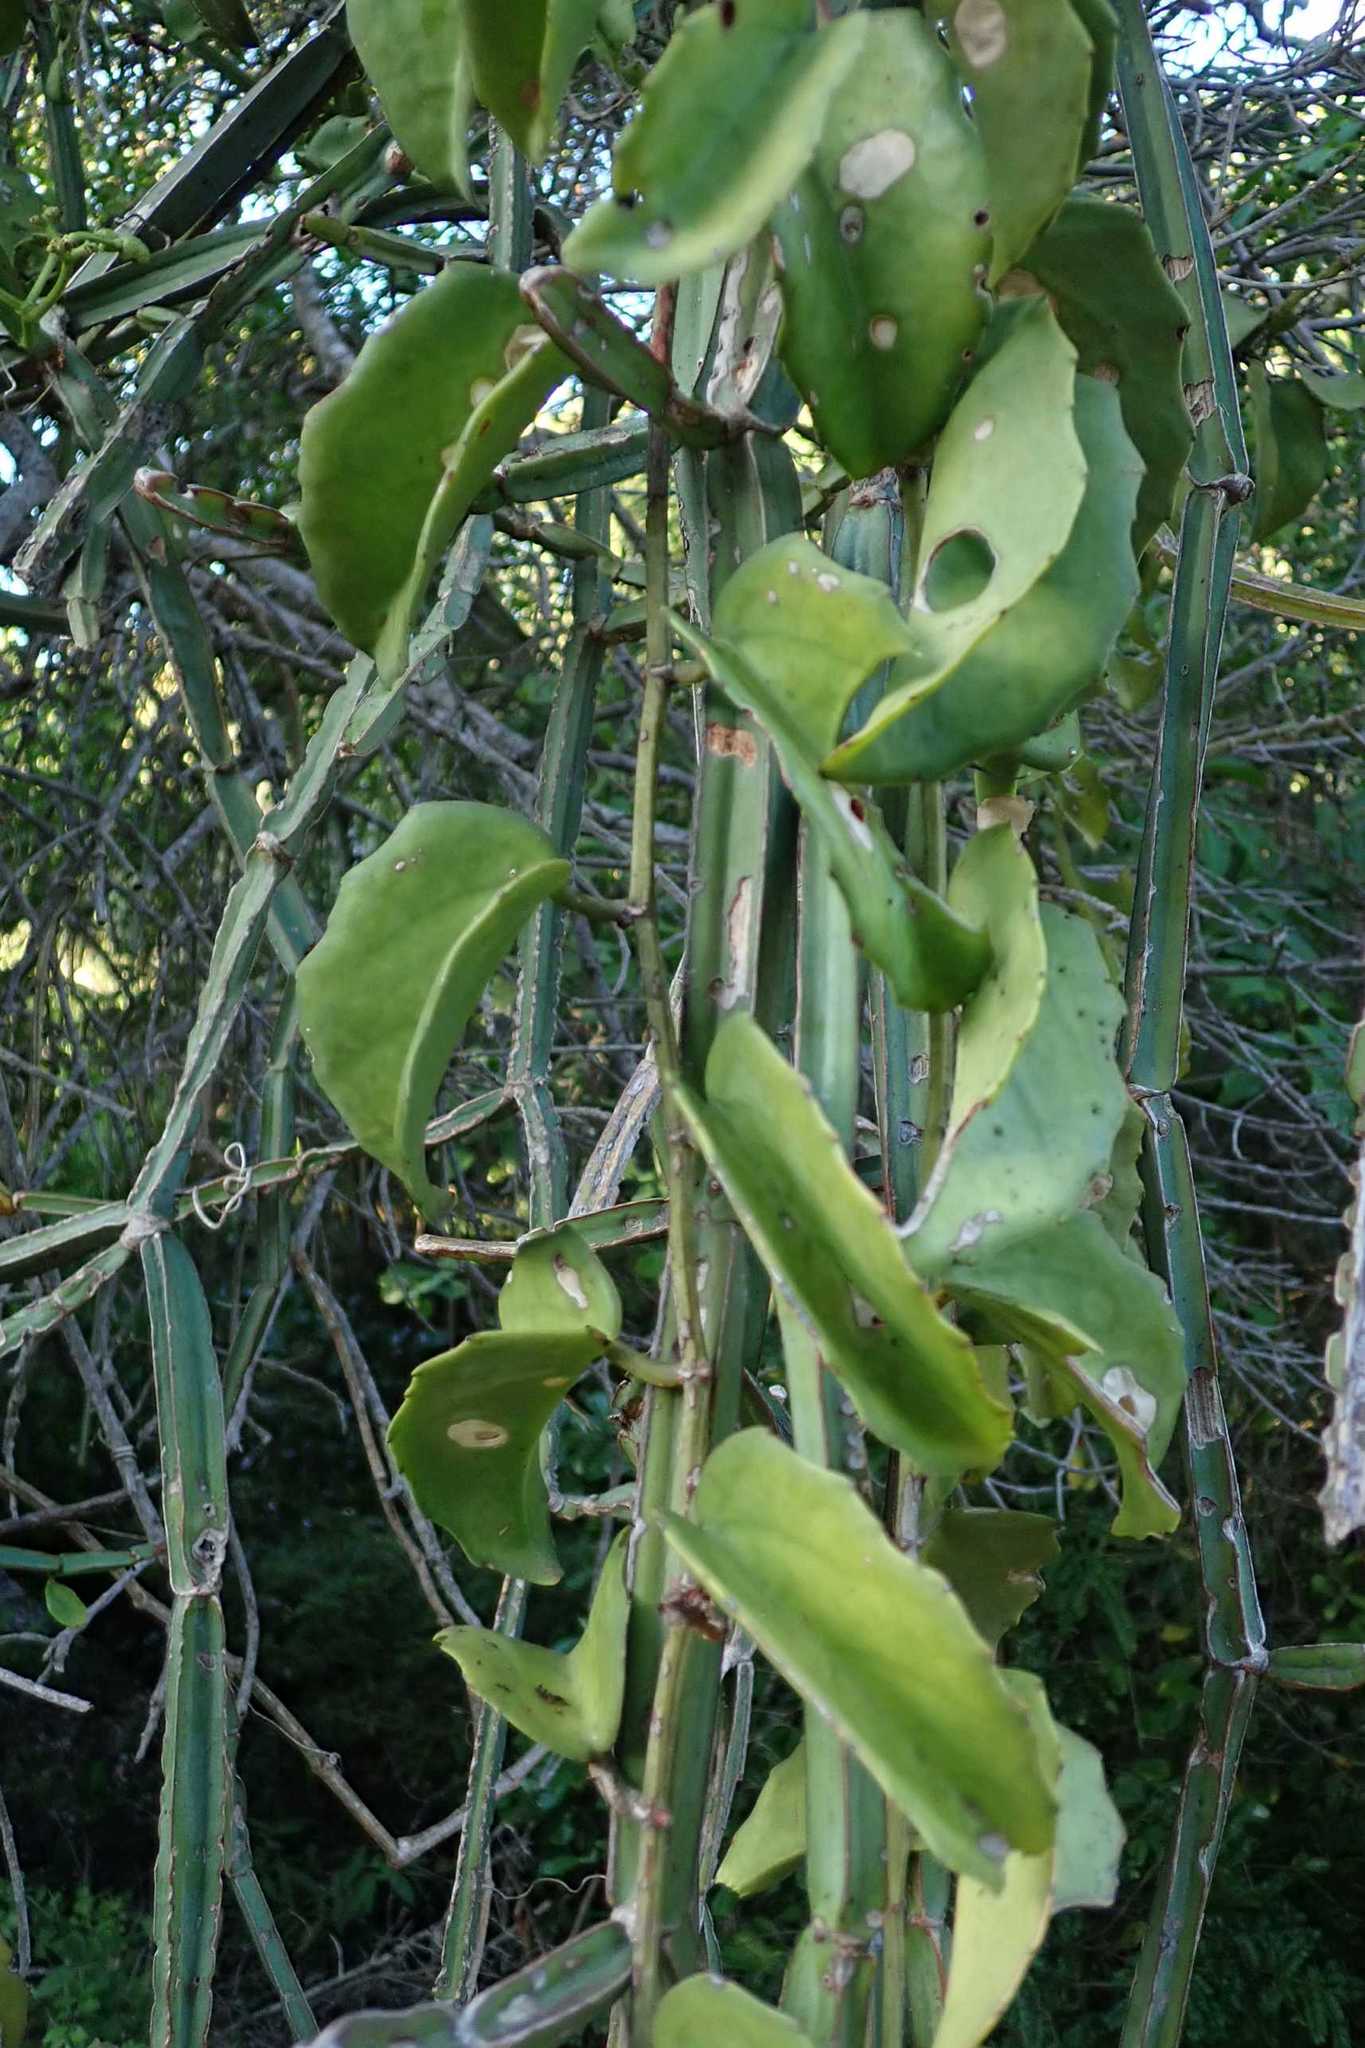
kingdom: Plantae
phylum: Tracheophyta
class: Magnoliopsida
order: Vitales
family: Vitaceae
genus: Cissus
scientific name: Cissus rotundifolia
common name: Arabian wax cissus
